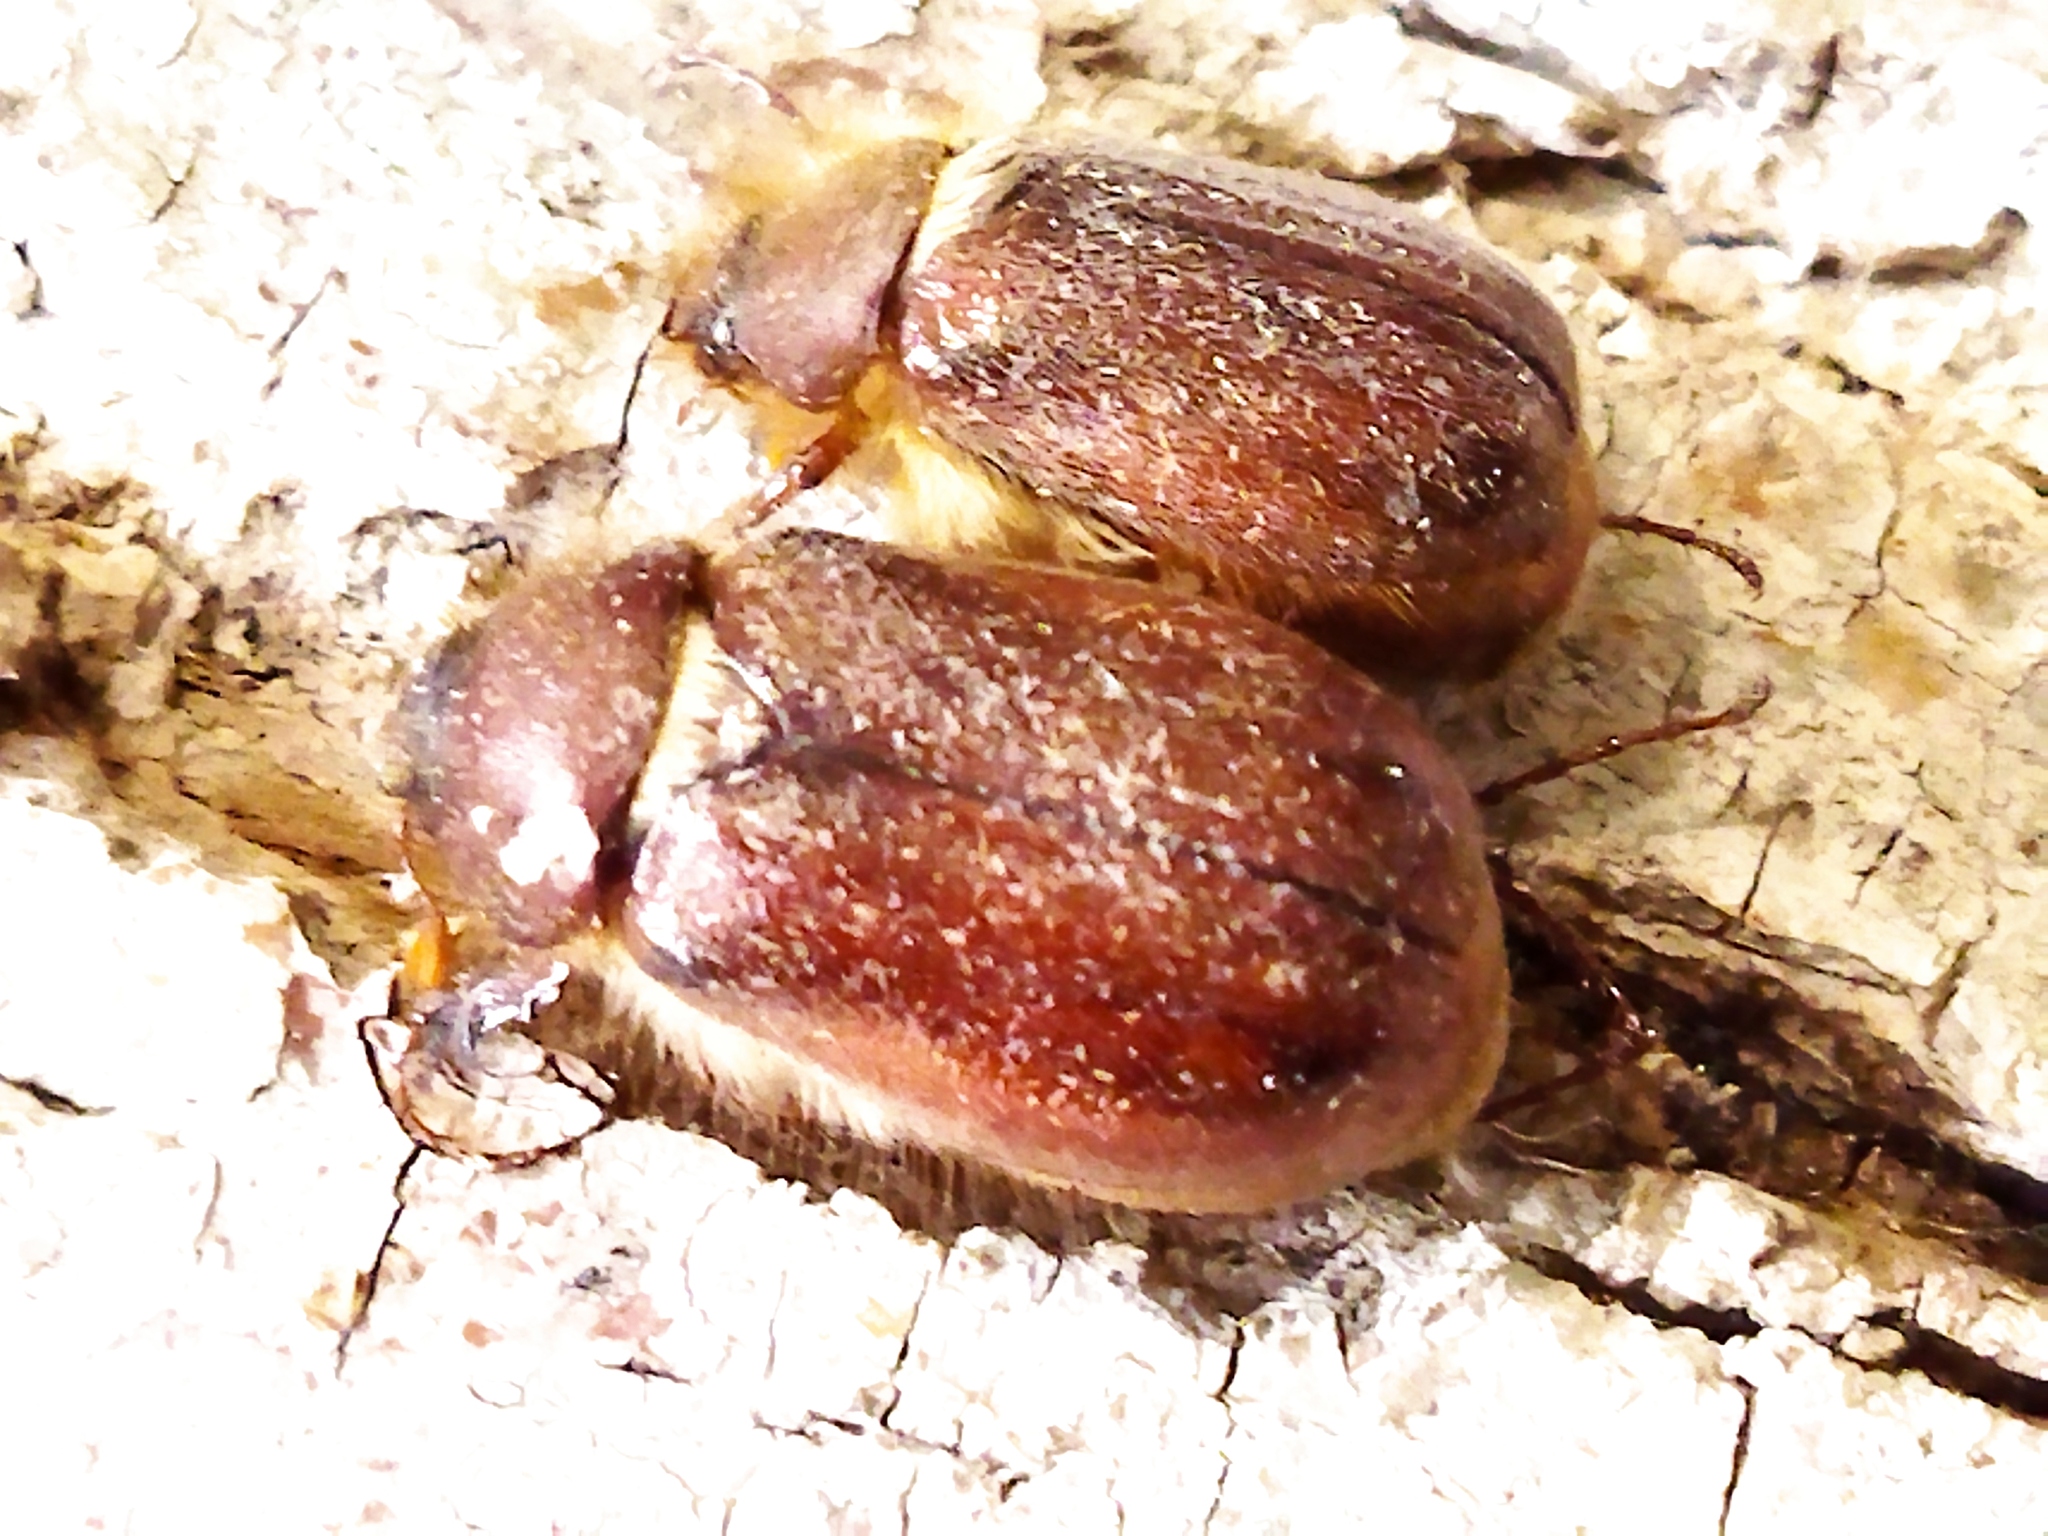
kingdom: Animalia
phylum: Arthropoda
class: Insecta
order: Coleoptera
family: Scarabaeidae
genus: Holochelus
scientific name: Holochelus aequinoctialis
